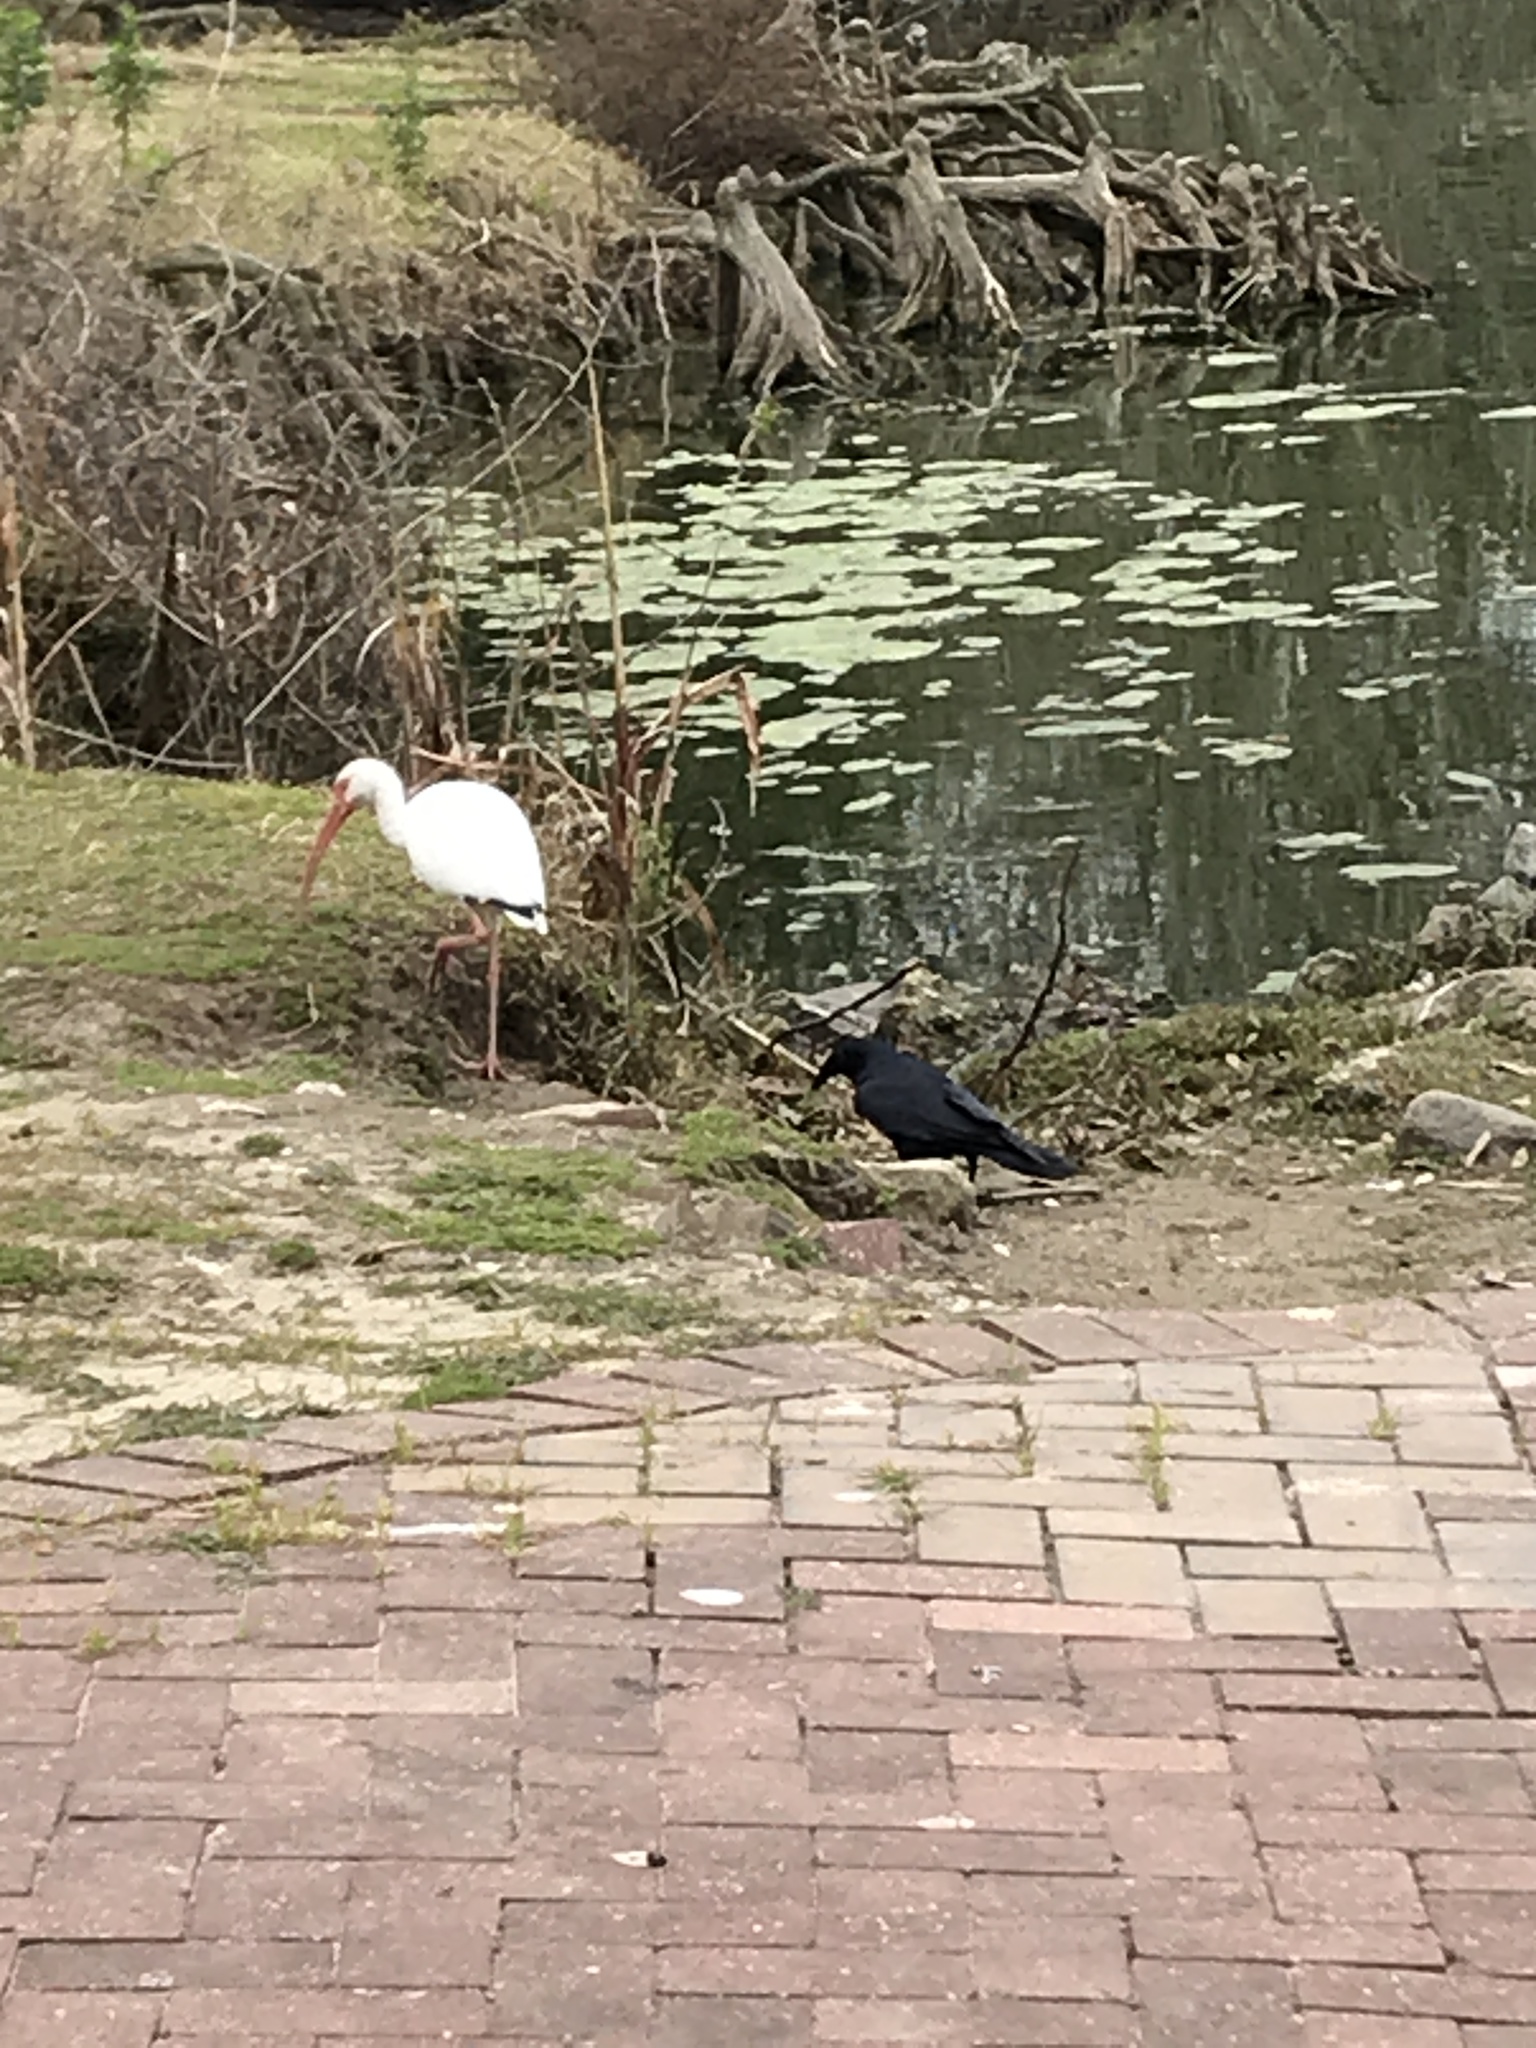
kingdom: Animalia
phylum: Chordata
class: Aves
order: Passeriformes
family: Corvidae
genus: Corvus
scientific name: Corvus brachyrhynchos
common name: American crow
